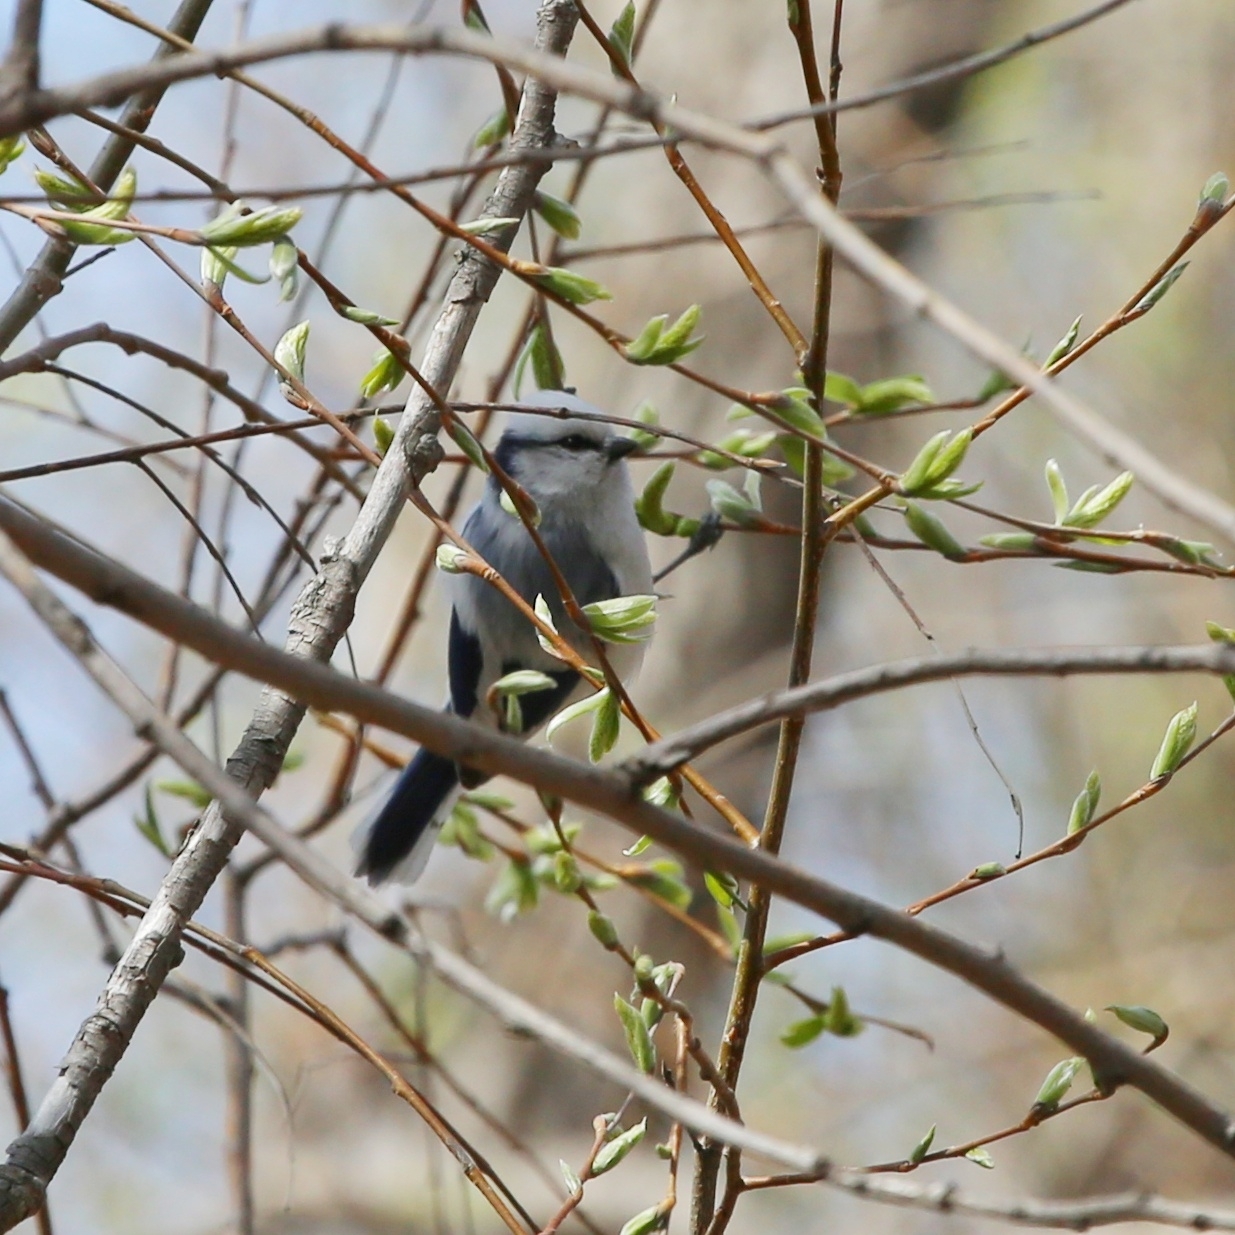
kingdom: Animalia
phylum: Chordata
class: Aves
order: Passeriformes
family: Paridae
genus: Cyanistes
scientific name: Cyanistes cyanus
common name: Azure tit
